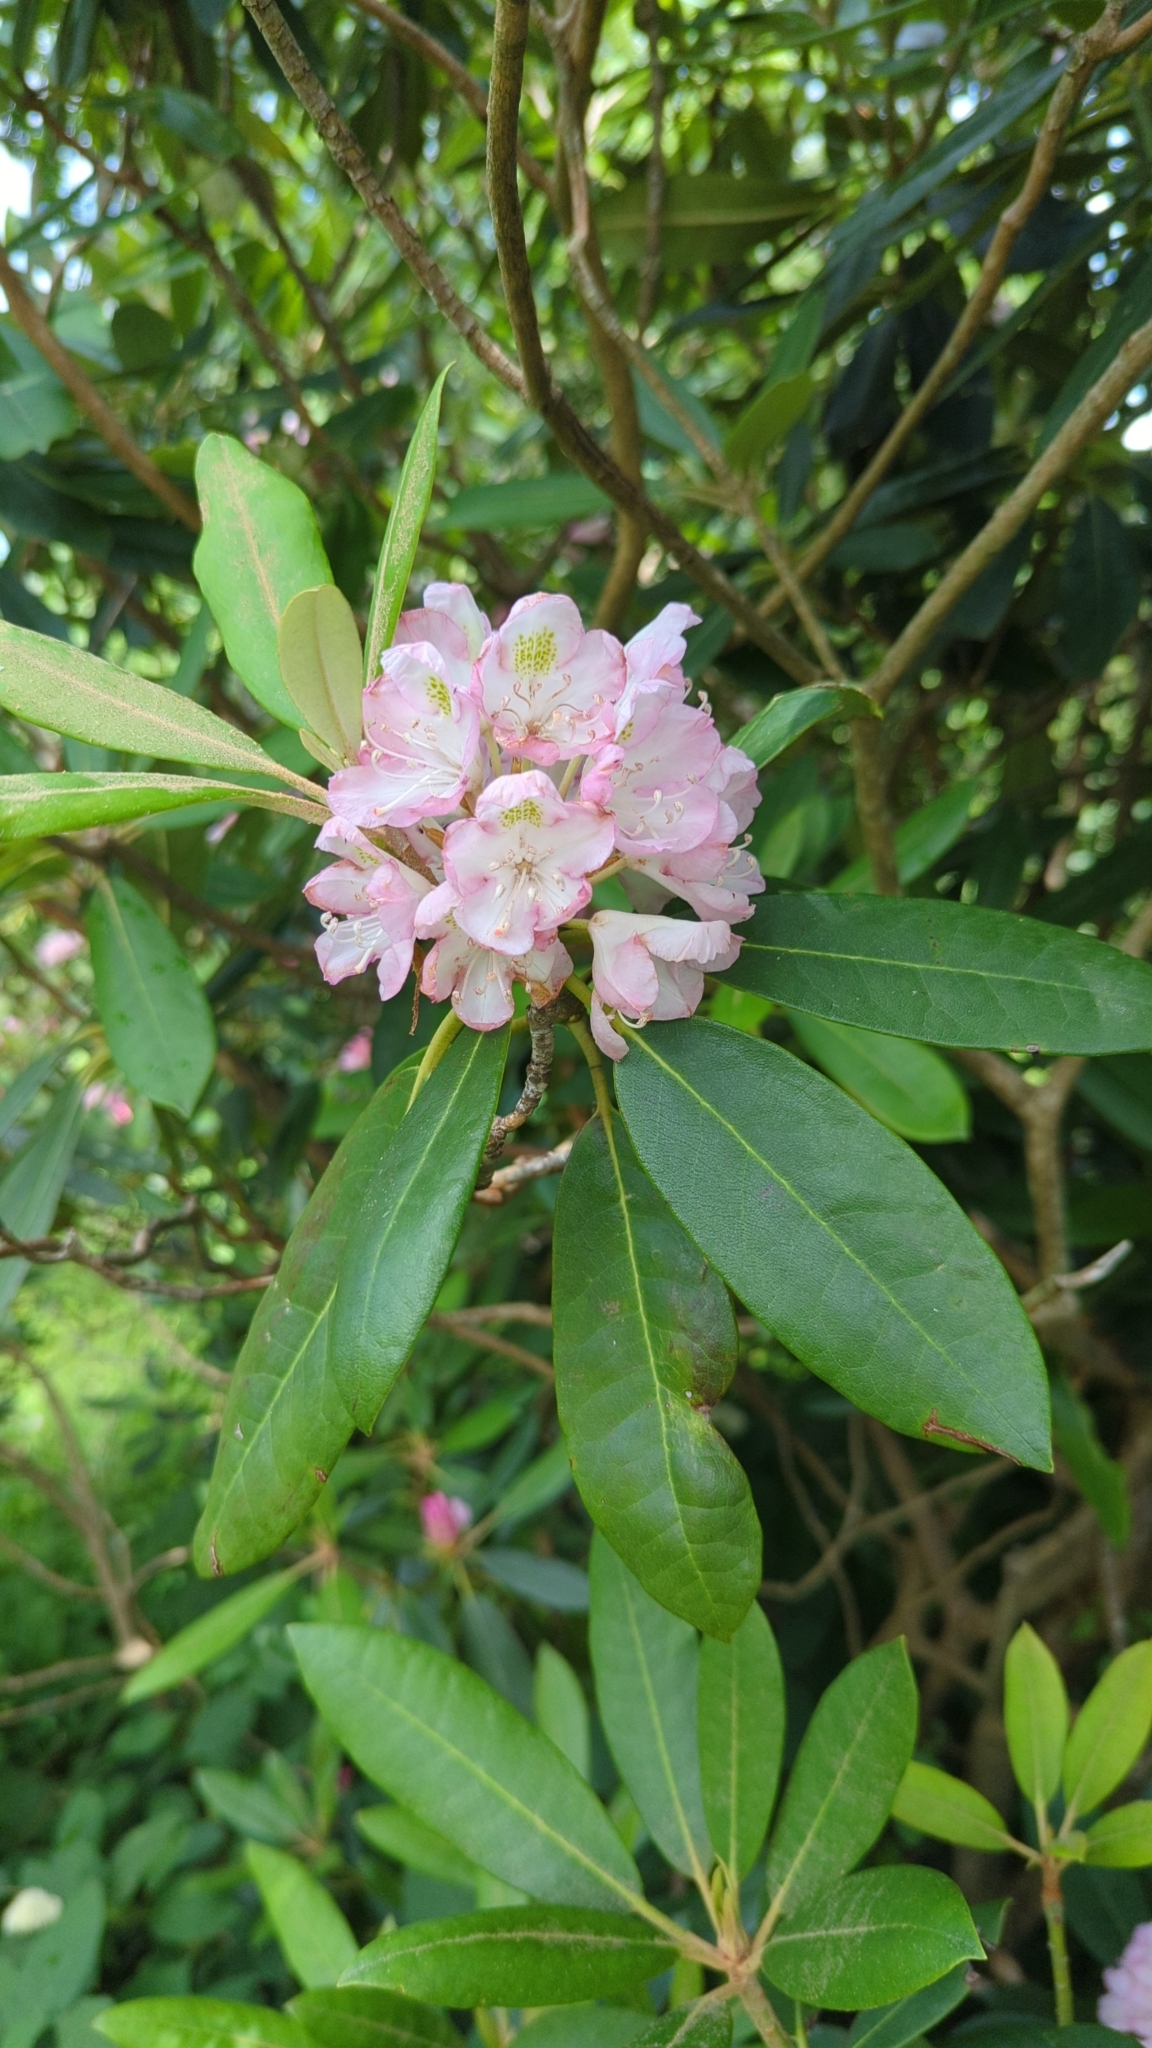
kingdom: Plantae
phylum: Tracheophyta
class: Magnoliopsida
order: Ericales
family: Ericaceae
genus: Rhododendron
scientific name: Rhododendron maximum
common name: Great rhododendron
